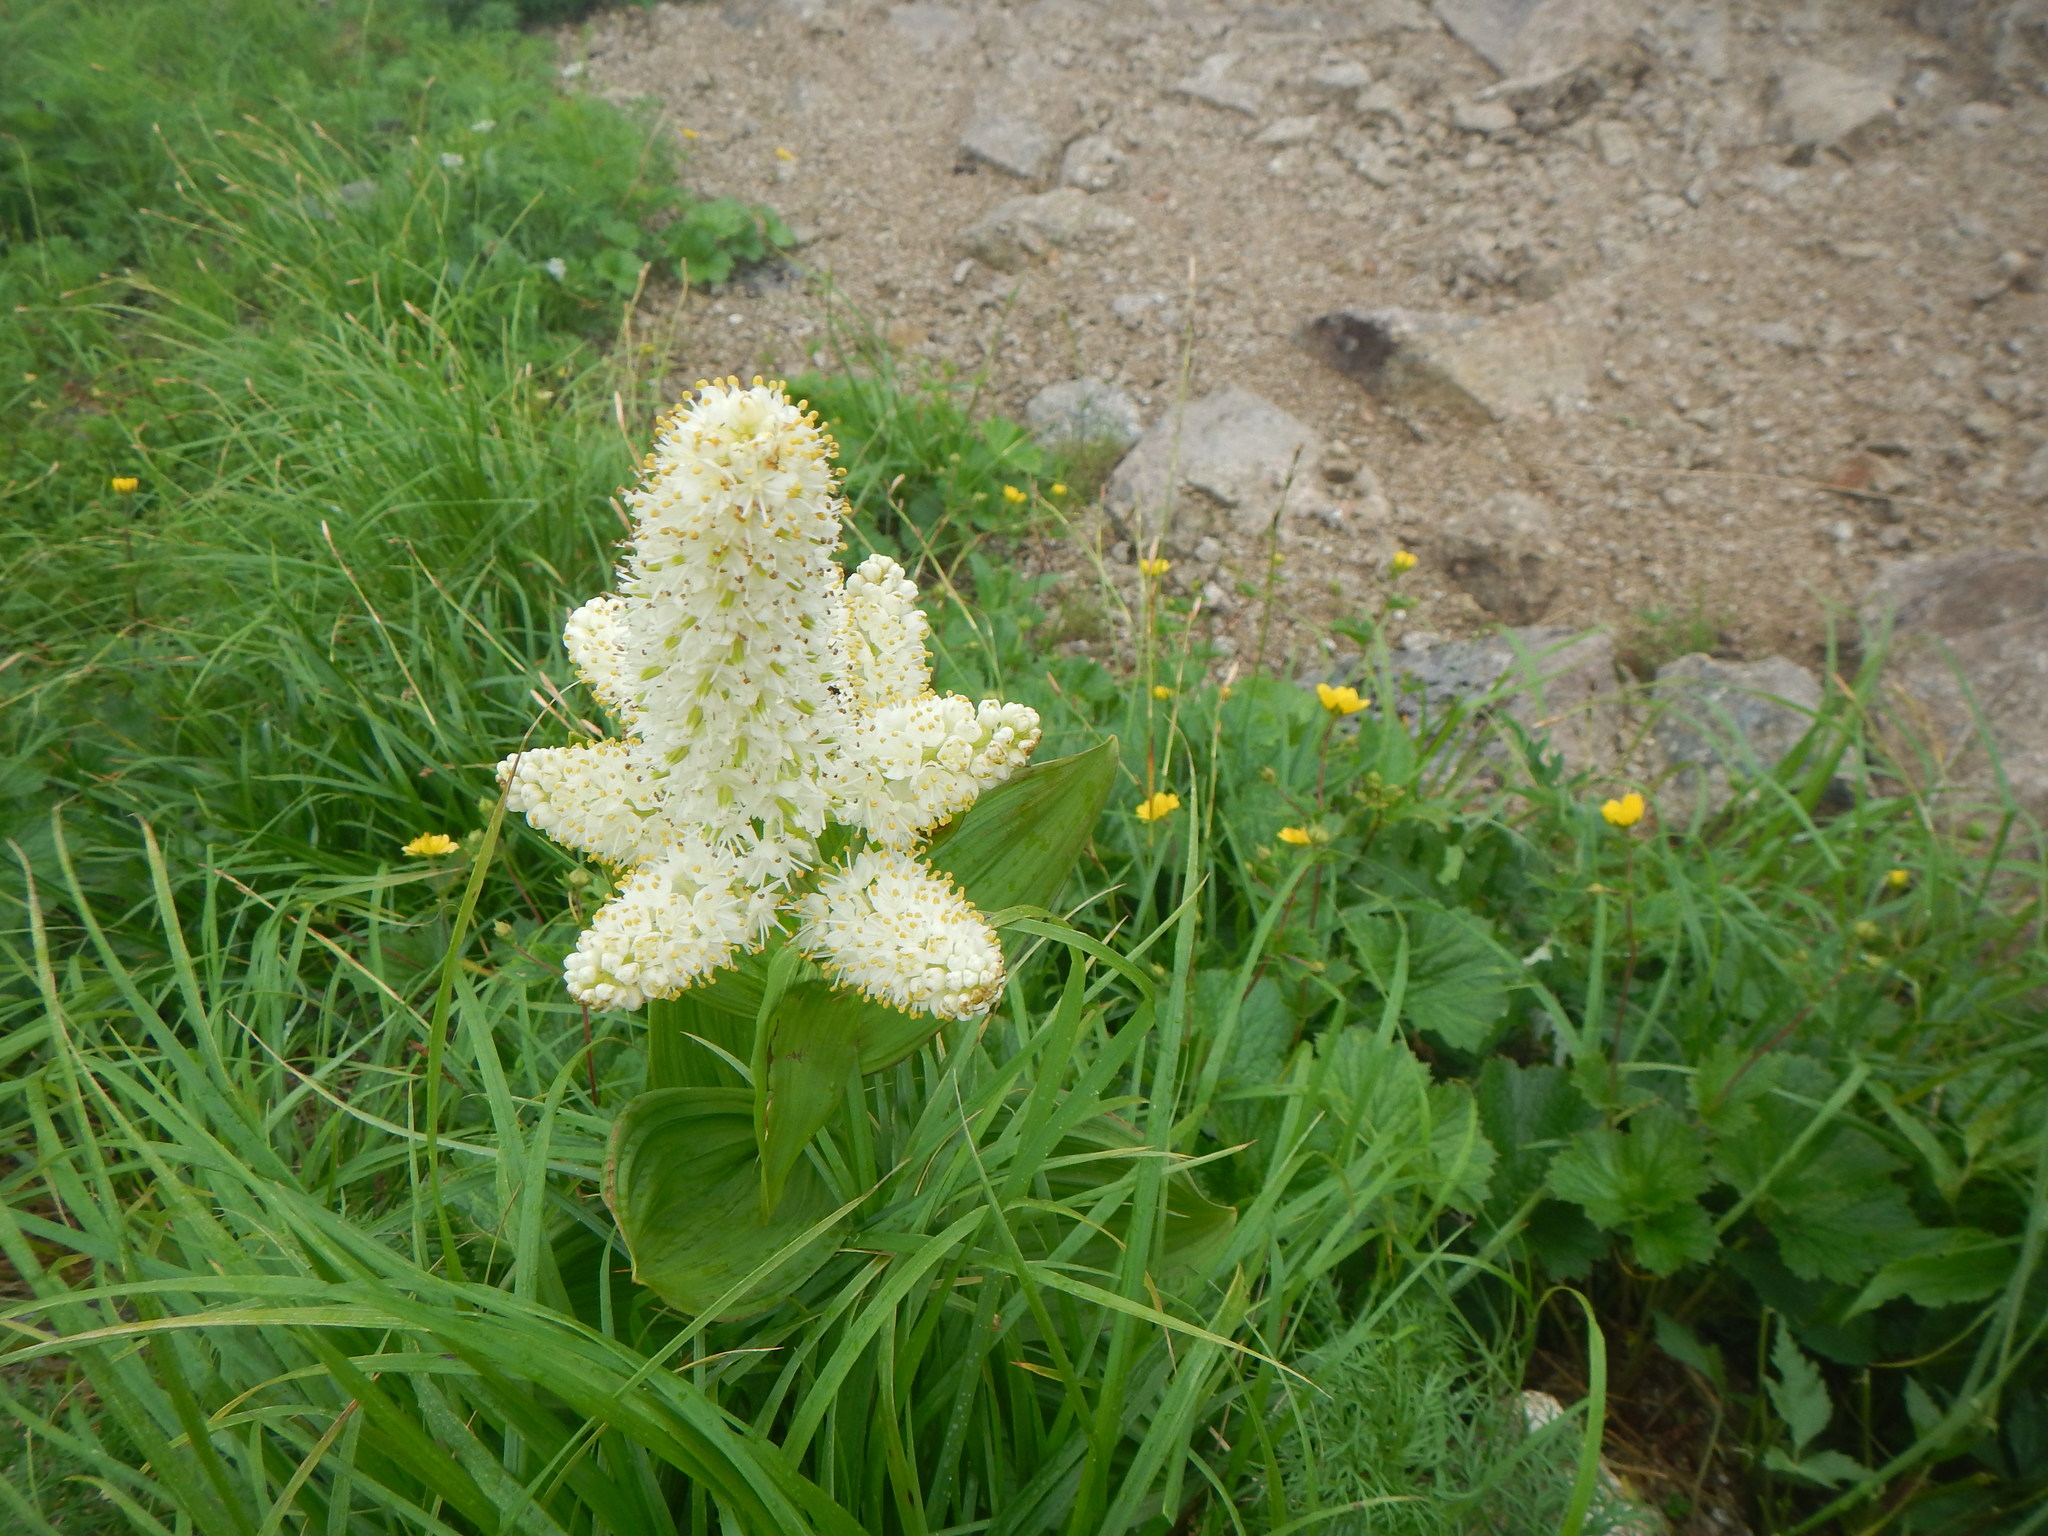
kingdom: Plantae
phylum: Tracheophyta
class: Liliopsida
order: Liliales
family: Melanthiaceae
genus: Veratrum
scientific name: Veratrum stamineum
